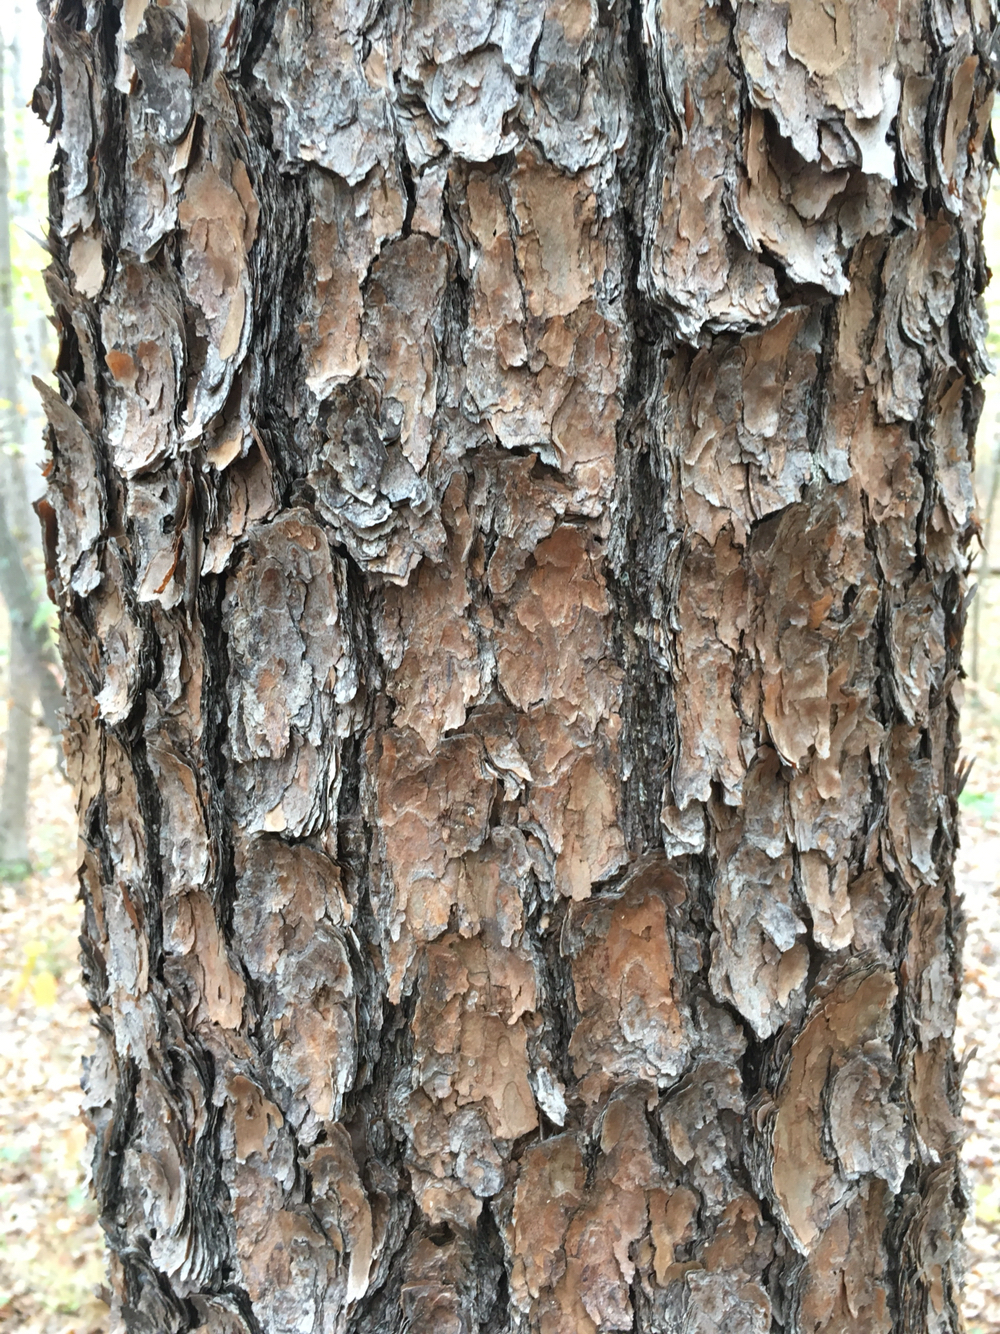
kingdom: Plantae
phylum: Tracheophyta
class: Pinopsida
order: Pinales
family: Pinaceae
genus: Pinus
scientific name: Pinus virginiana
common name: Scrub pine
